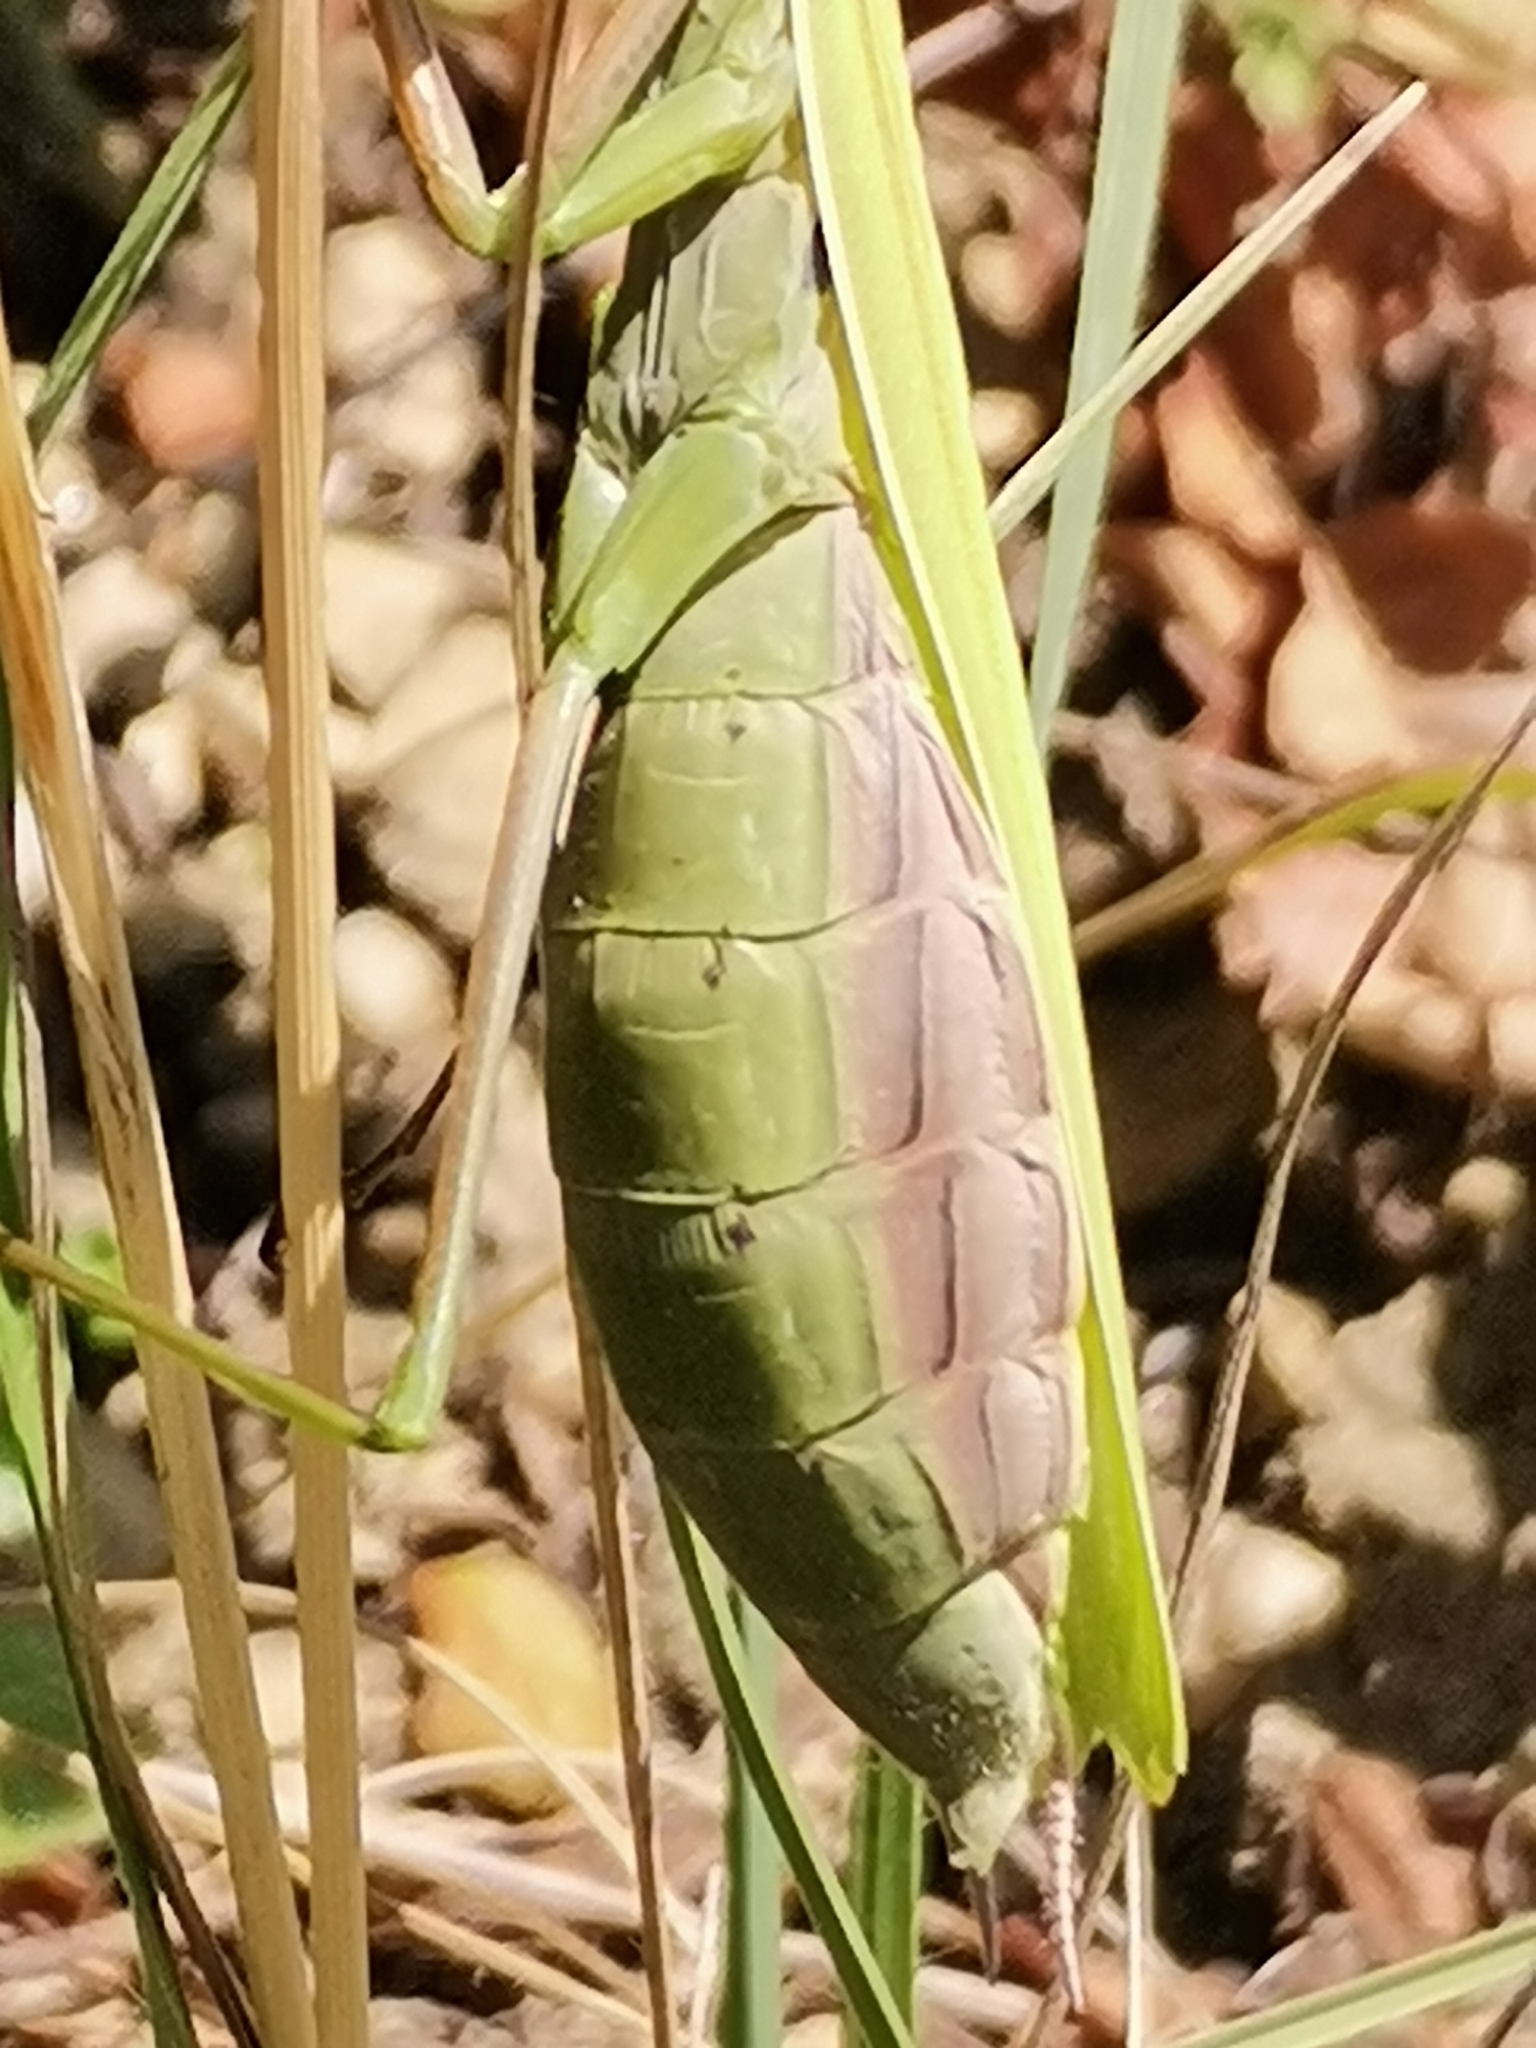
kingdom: Animalia
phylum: Arthropoda
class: Insecta
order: Mantodea
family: Mantidae
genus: Mantis
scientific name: Mantis religiosa
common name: Praying mantis
